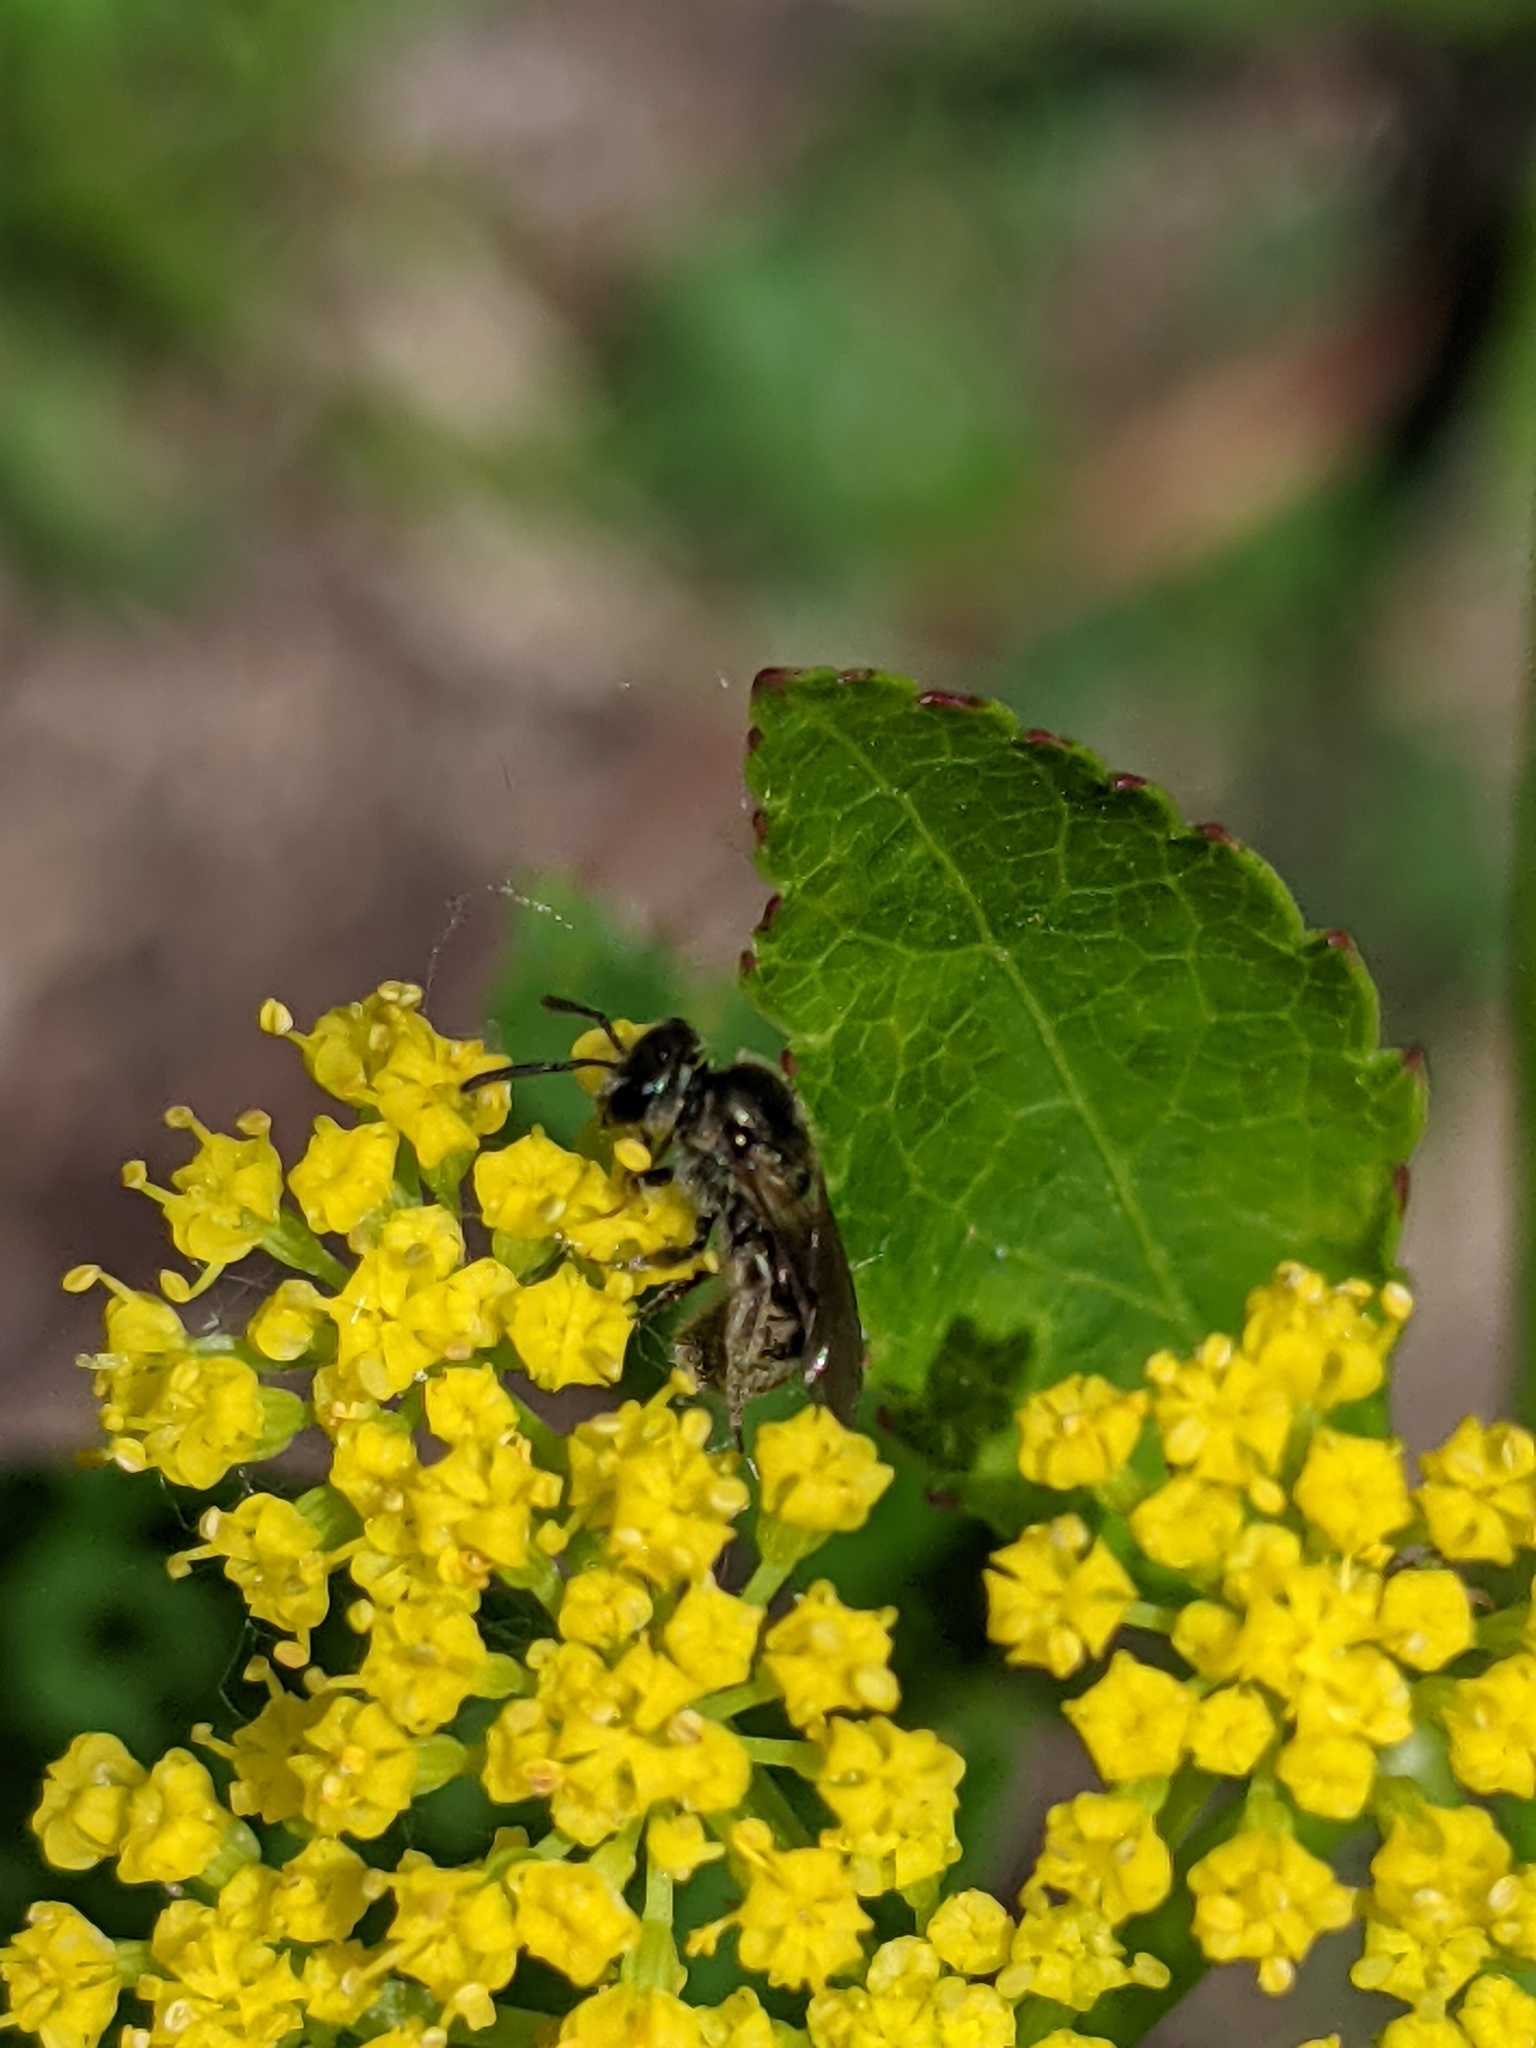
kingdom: Animalia
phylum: Arthropoda
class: Insecta
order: Hymenoptera
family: Halictidae
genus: Lasioglossum
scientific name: Lasioglossum
